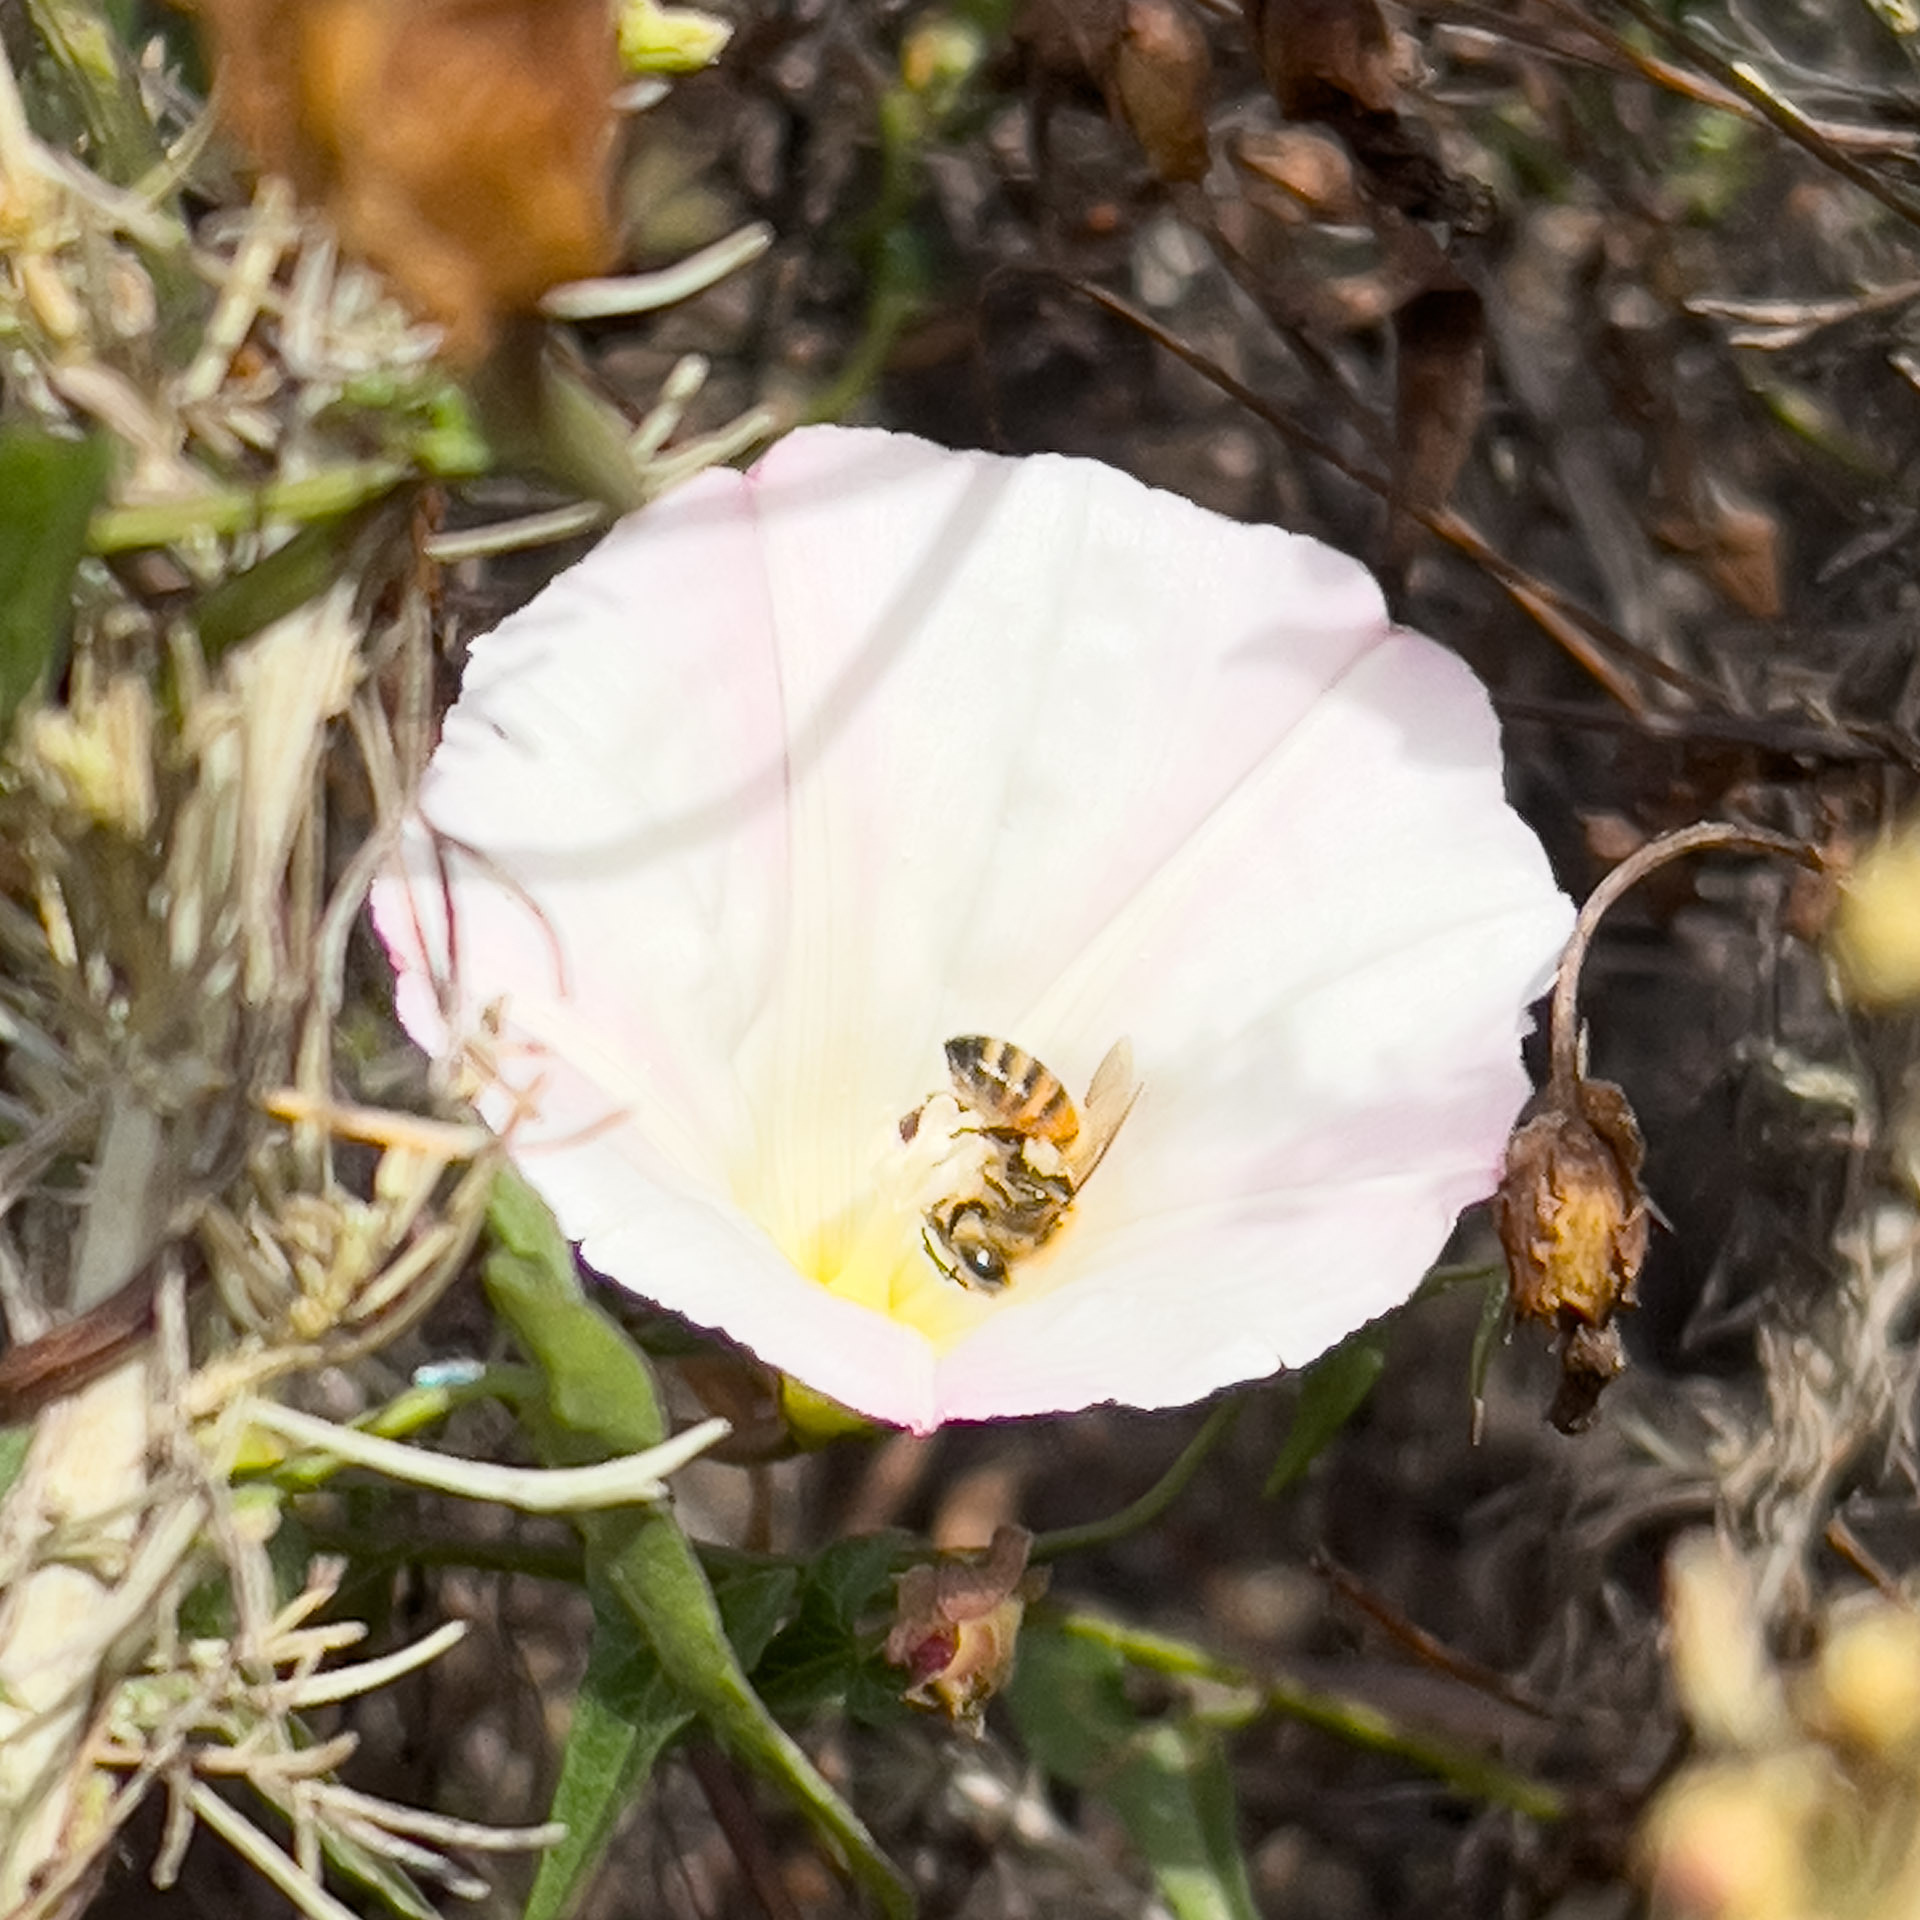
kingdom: Animalia
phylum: Arthropoda
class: Insecta
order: Hymenoptera
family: Apidae
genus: Apis
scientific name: Apis mellifera
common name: Honey bee
